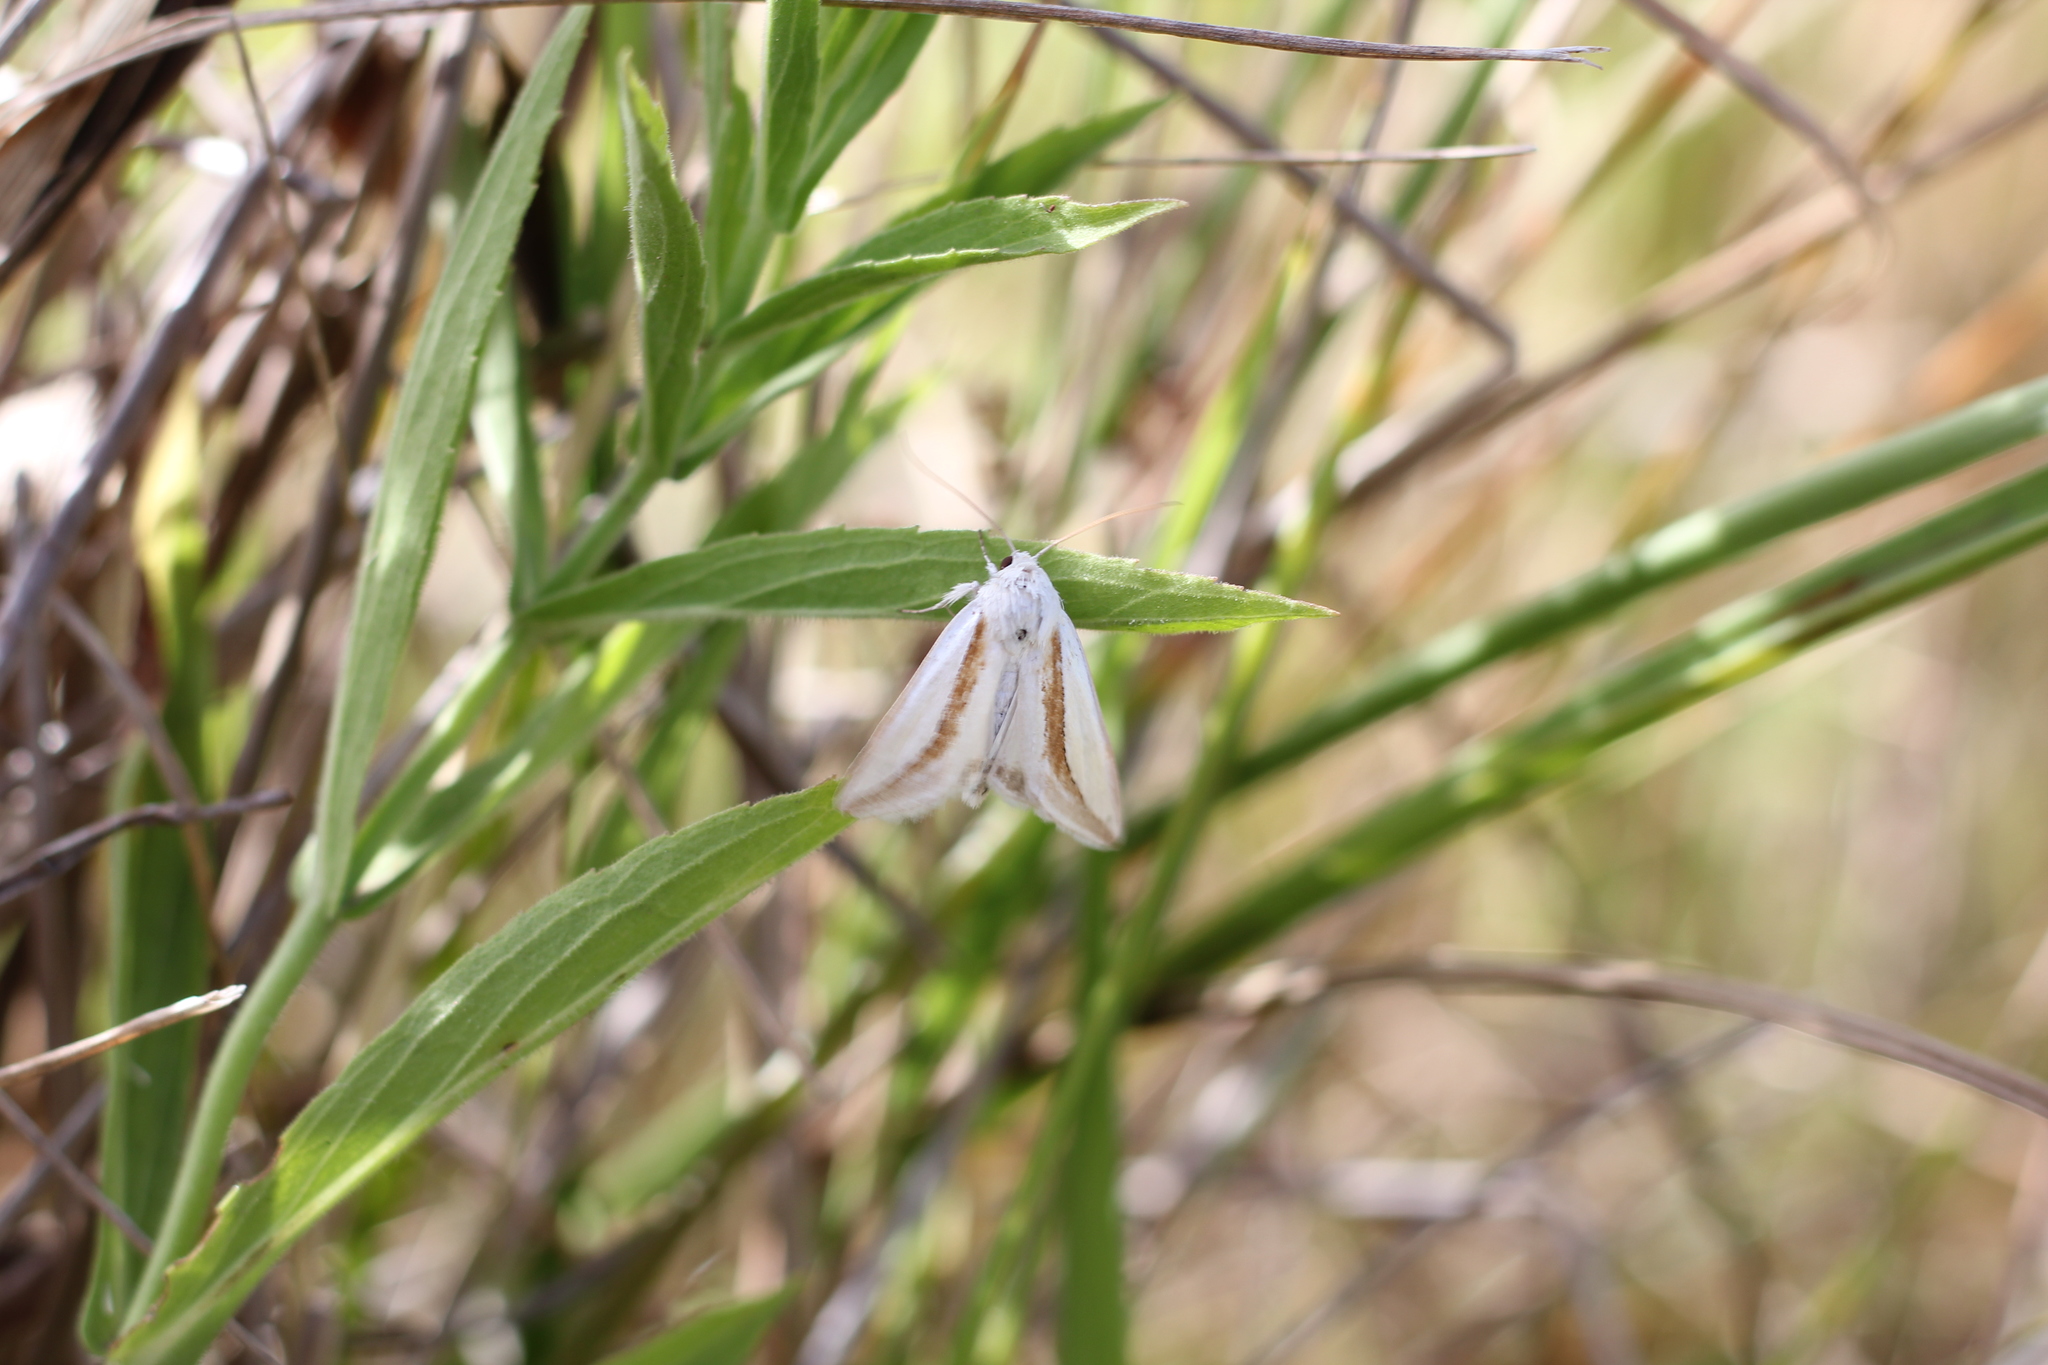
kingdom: Animalia
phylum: Arthropoda
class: Insecta
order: Lepidoptera
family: Noctuidae
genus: Cucullia
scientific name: Cucullia argyrina
